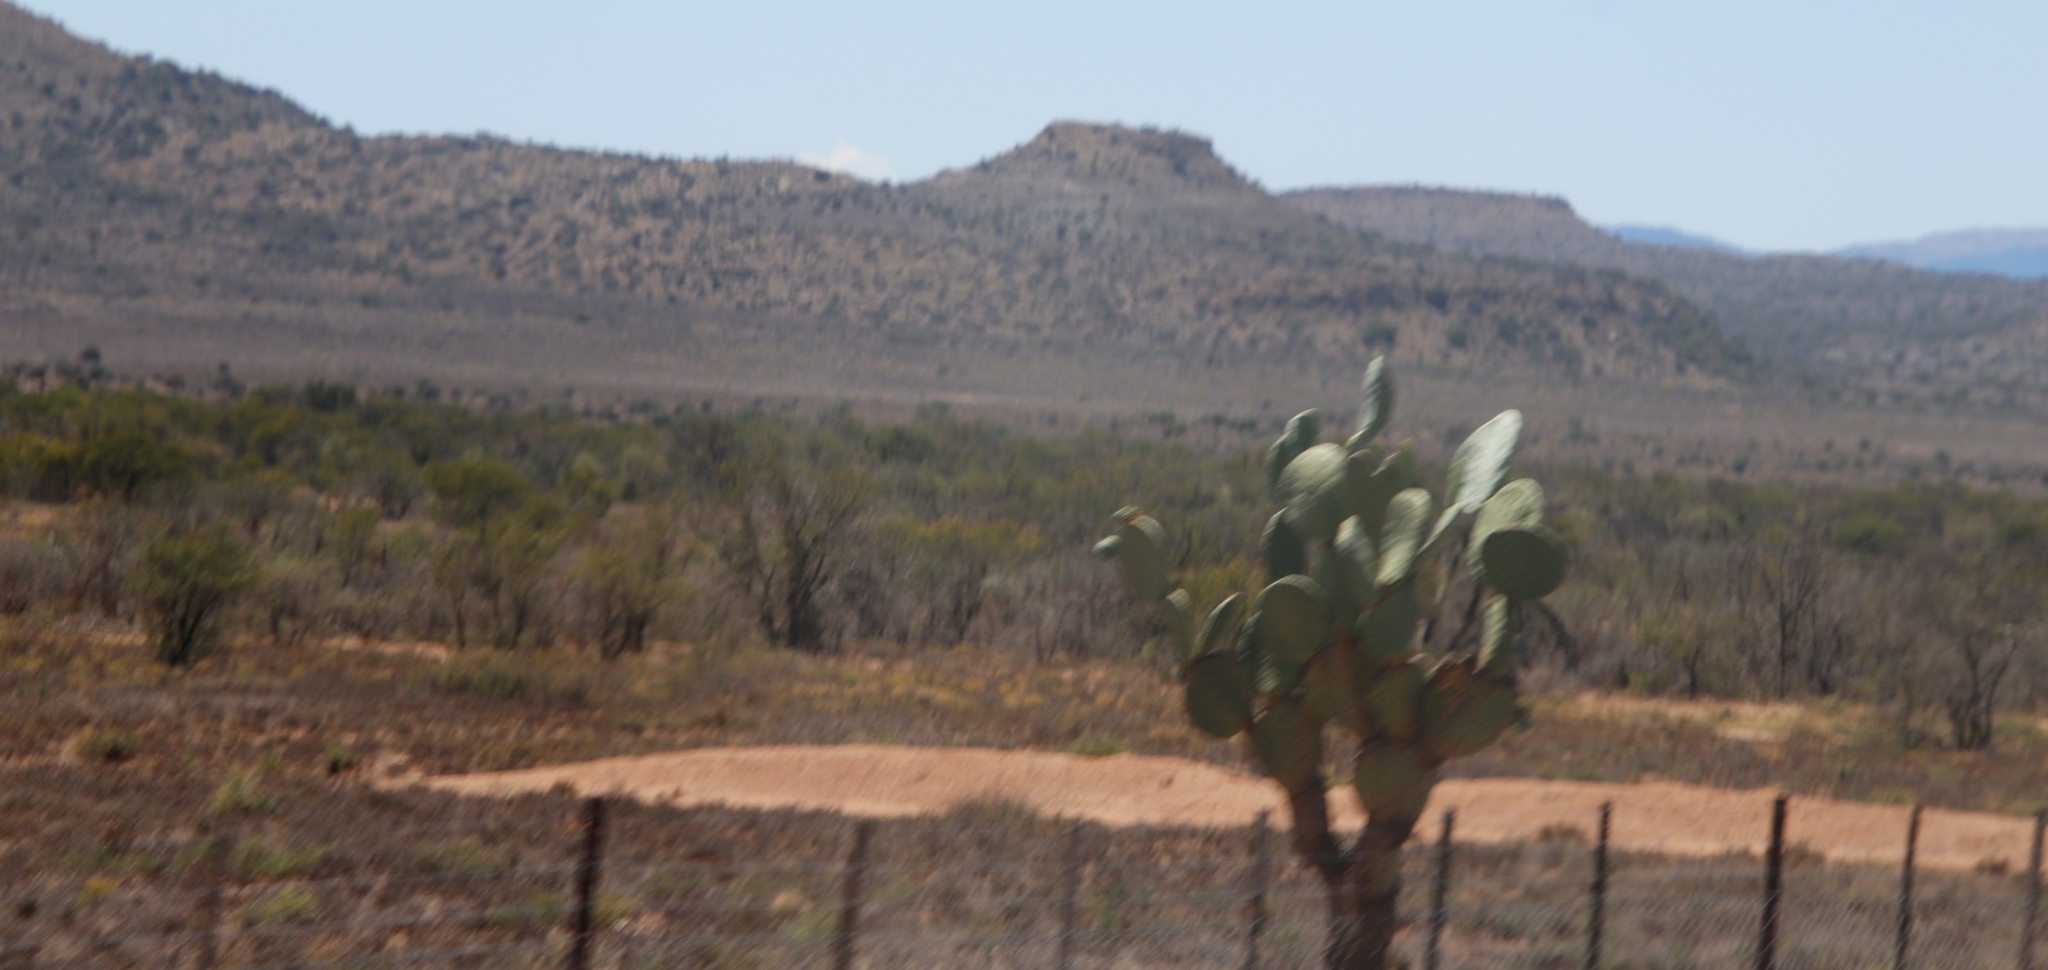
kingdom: Plantae
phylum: Tracheophyta
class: Magnoliopsida
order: Caryophyllales
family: Cactaceae
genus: Opuntia
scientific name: Opuntia ficus-indica
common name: Barbary fig
